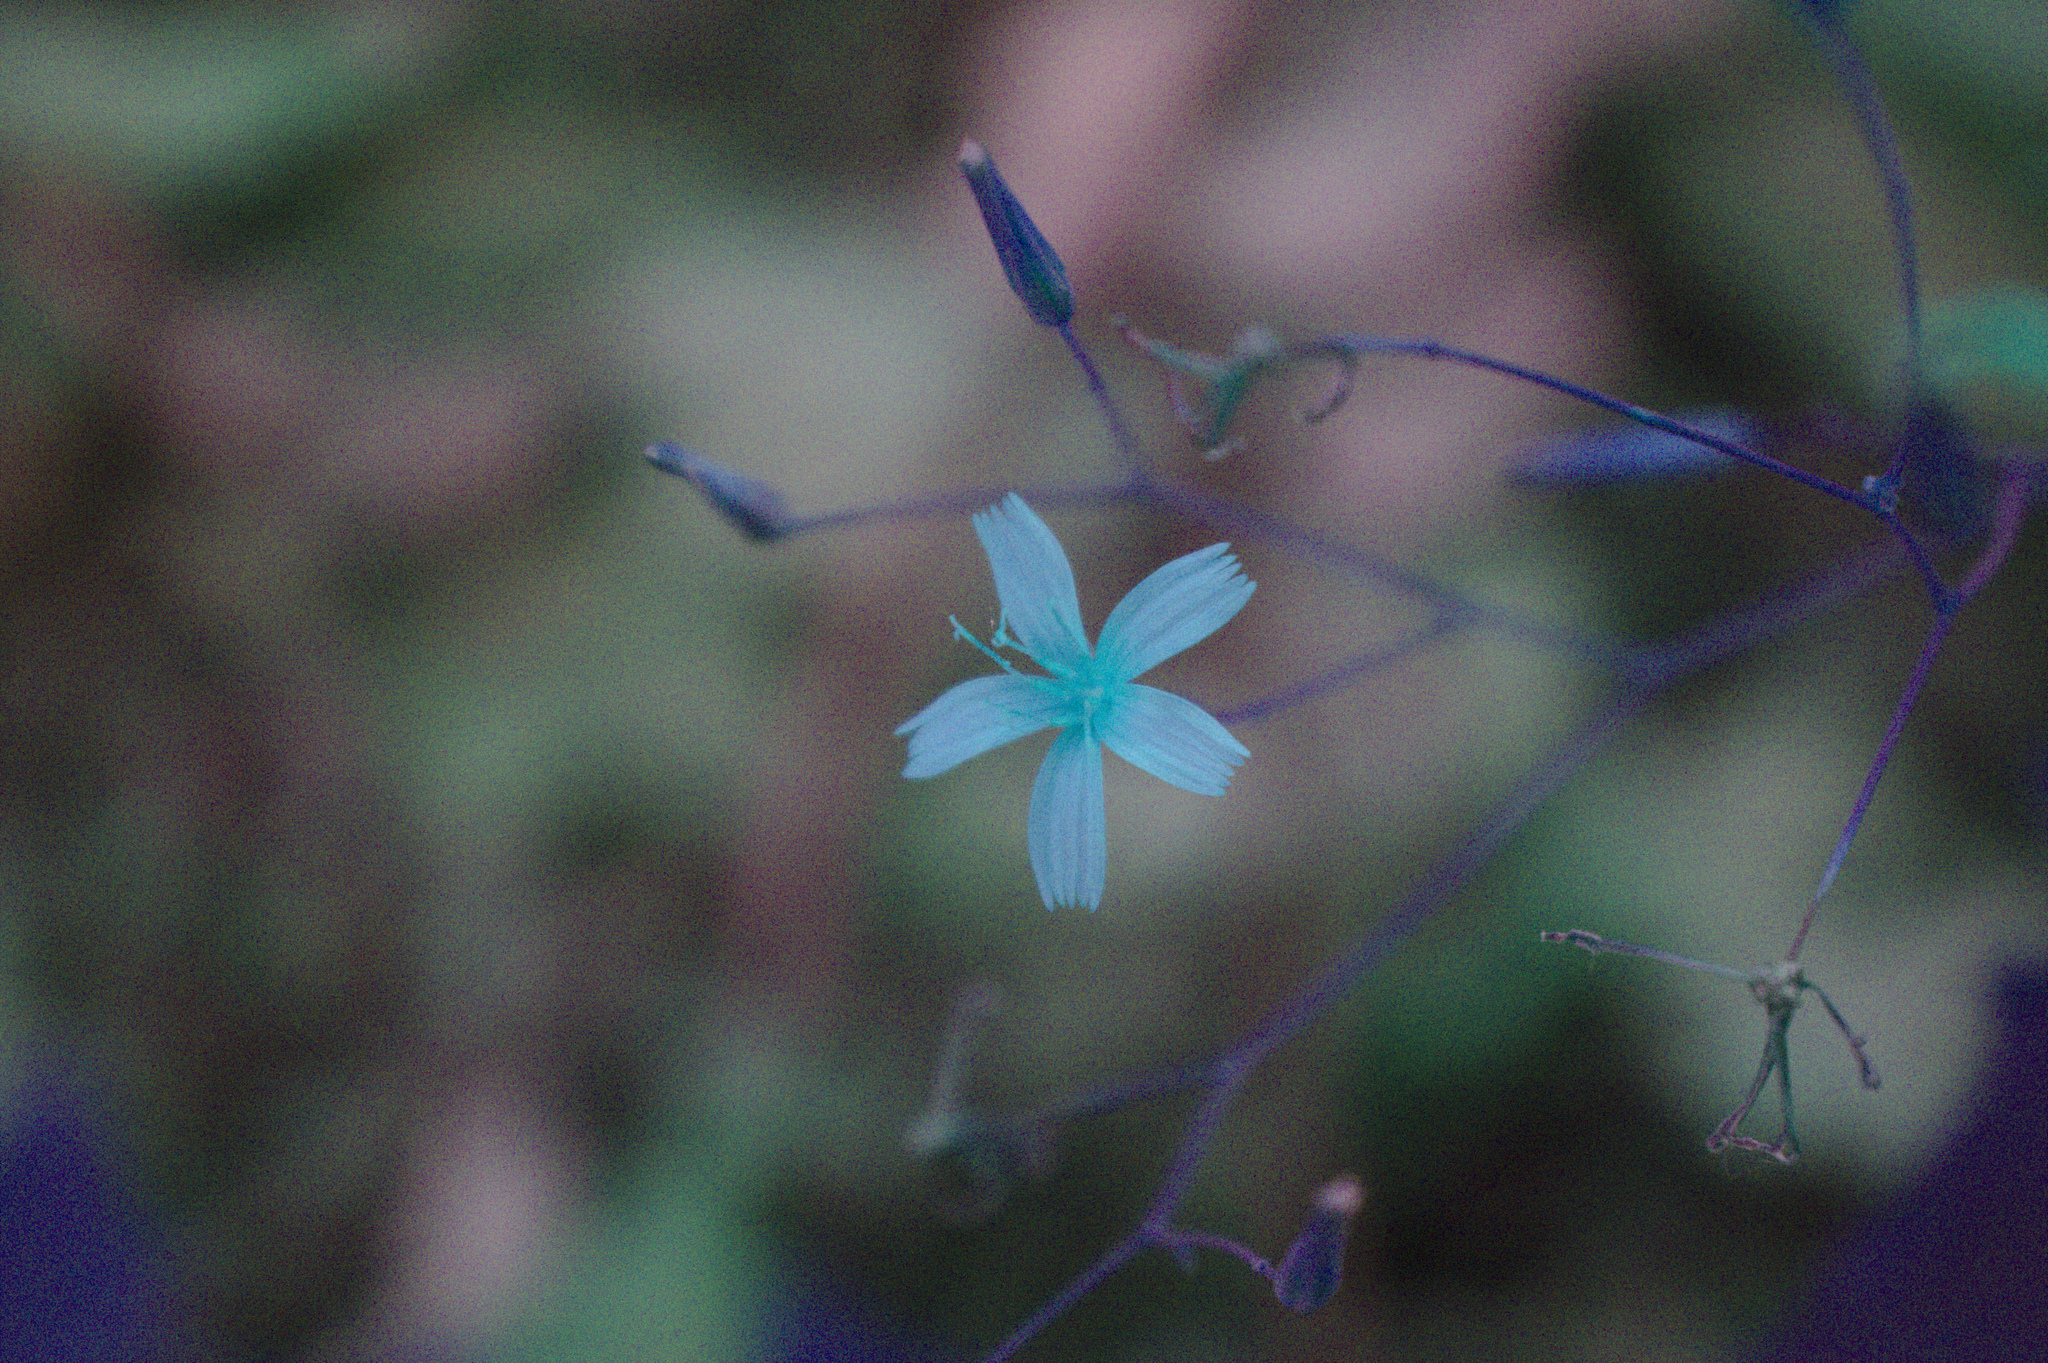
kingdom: Plantae
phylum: Tracheophyta
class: Magnoliopsida
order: Asterales
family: Asteraceae
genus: Mycelis
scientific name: Mycelis muralis
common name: Wall lettuce
